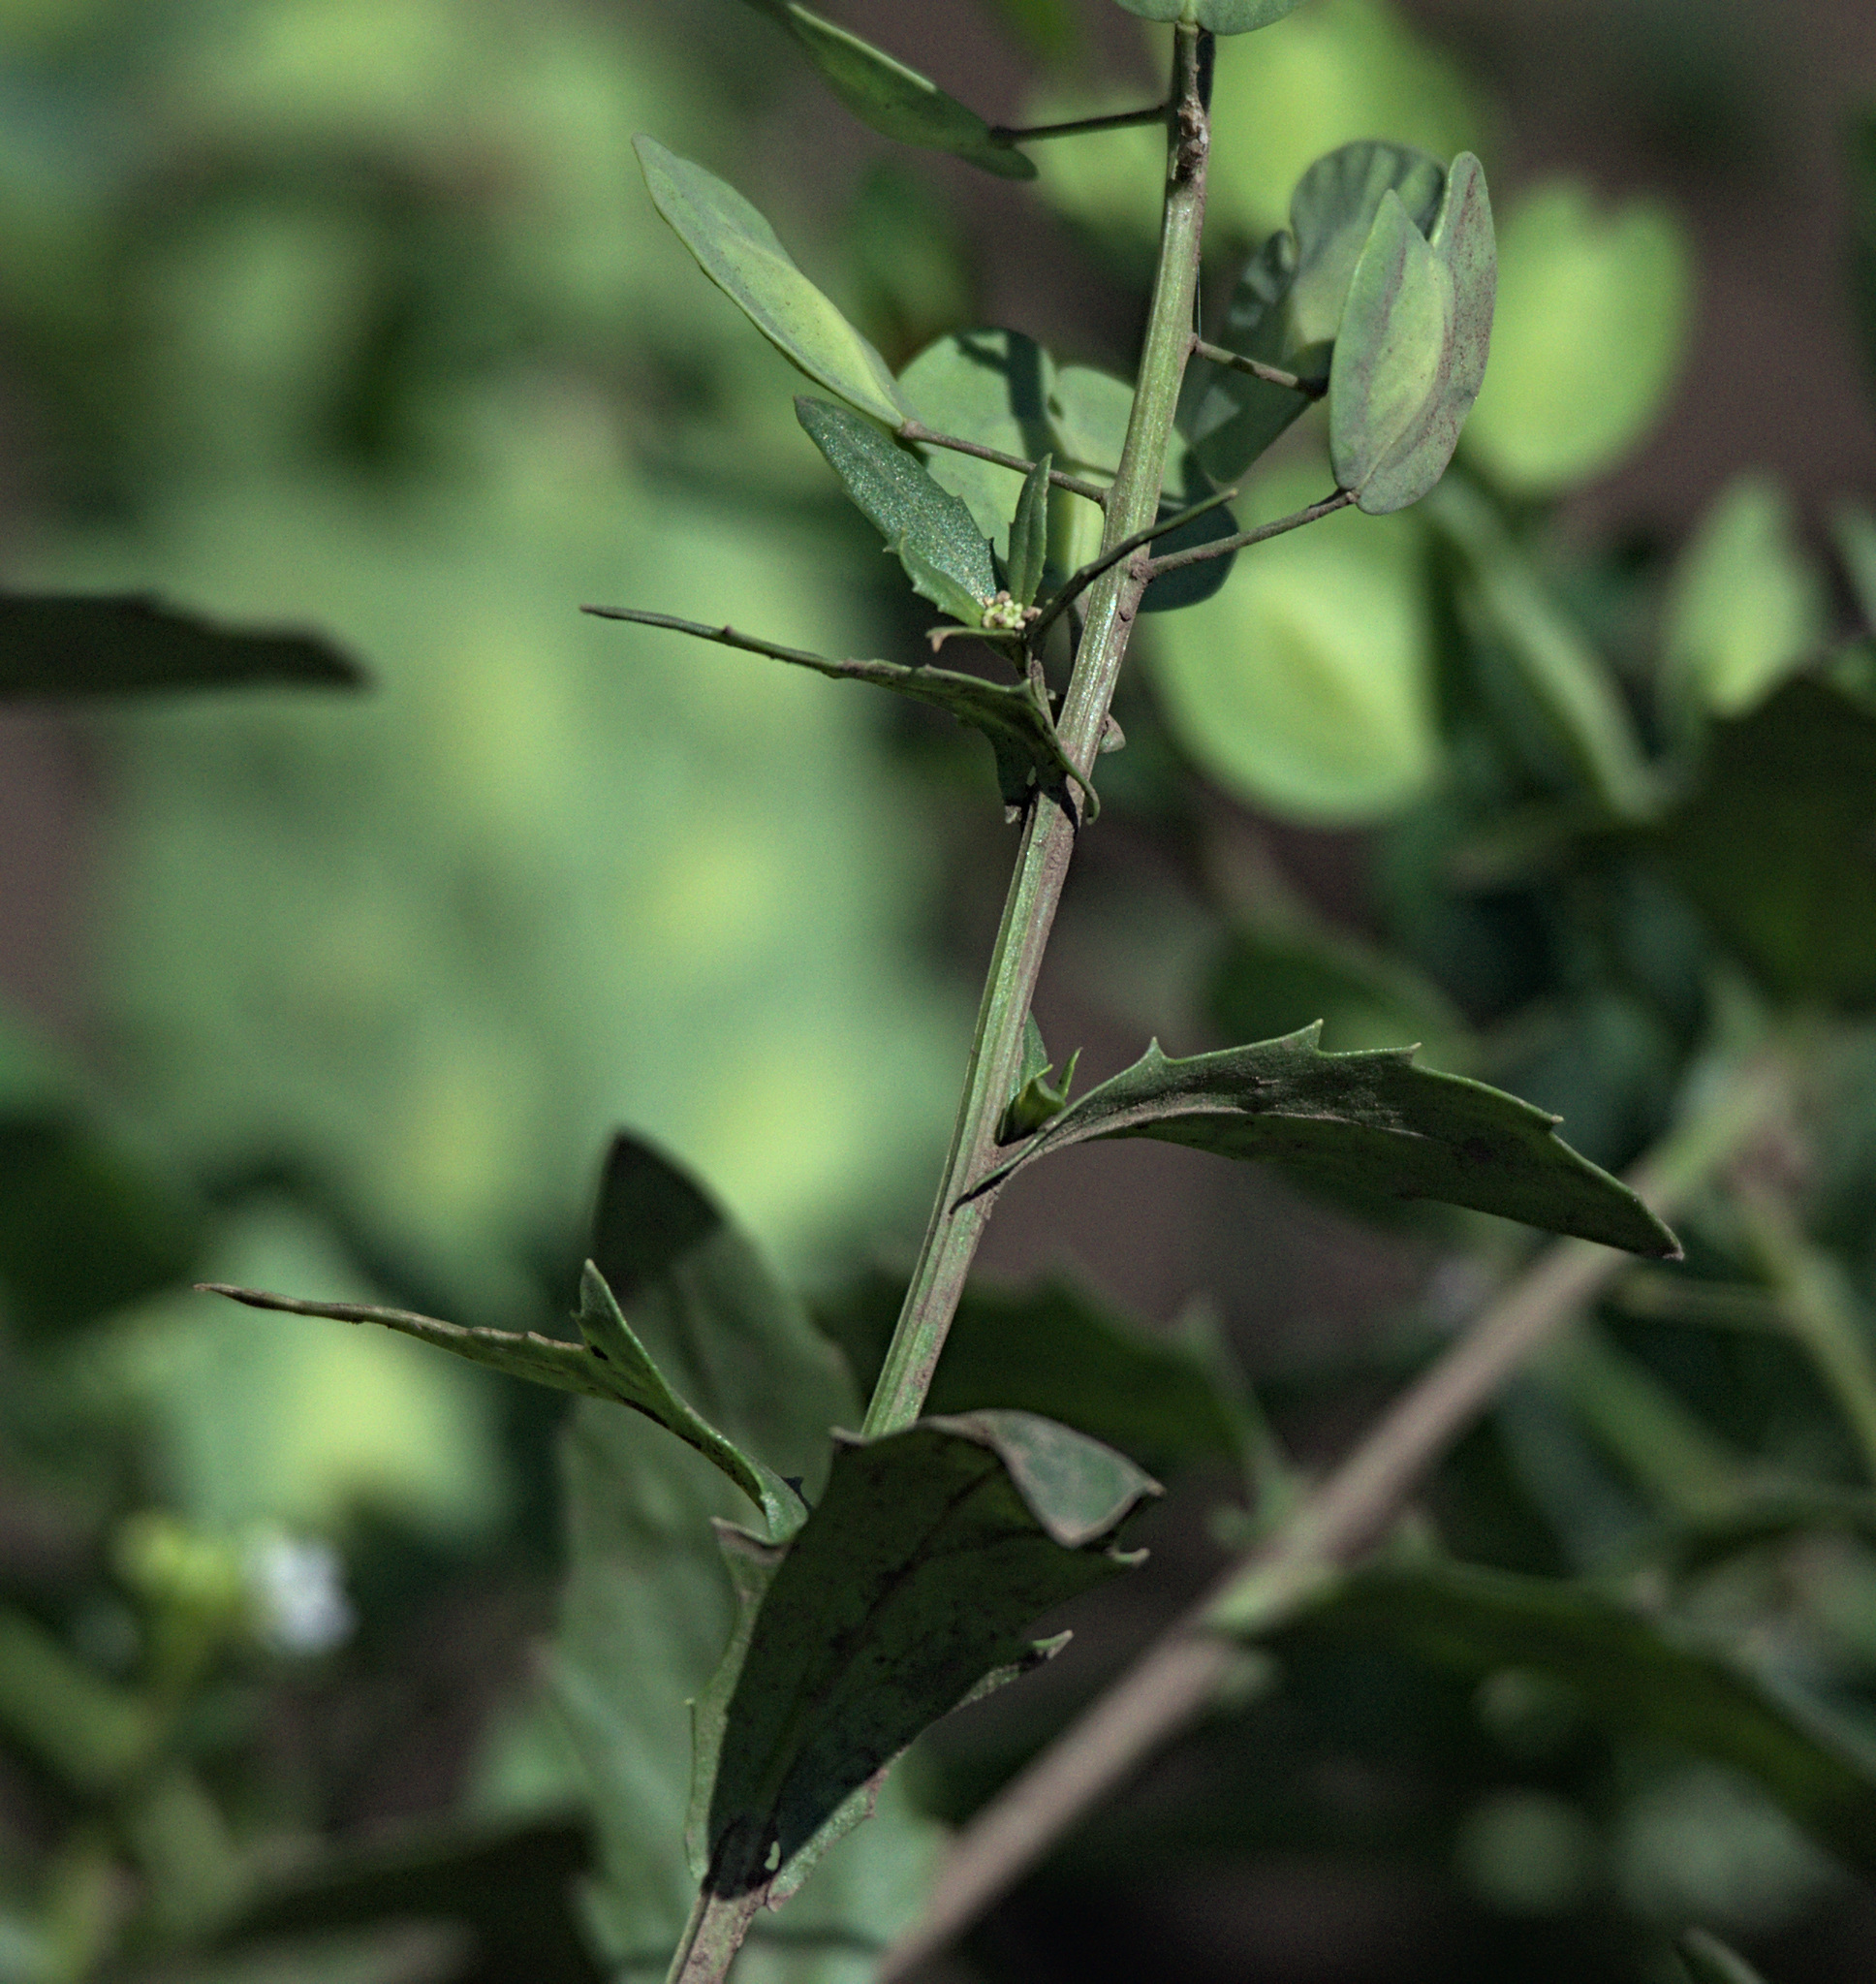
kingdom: Plantae
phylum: Tracheophyta
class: Magnoliopsida
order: Brassicales
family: Brassicaceae
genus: Thlaspi
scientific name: Thlaspi arvense
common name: Field pennycress
